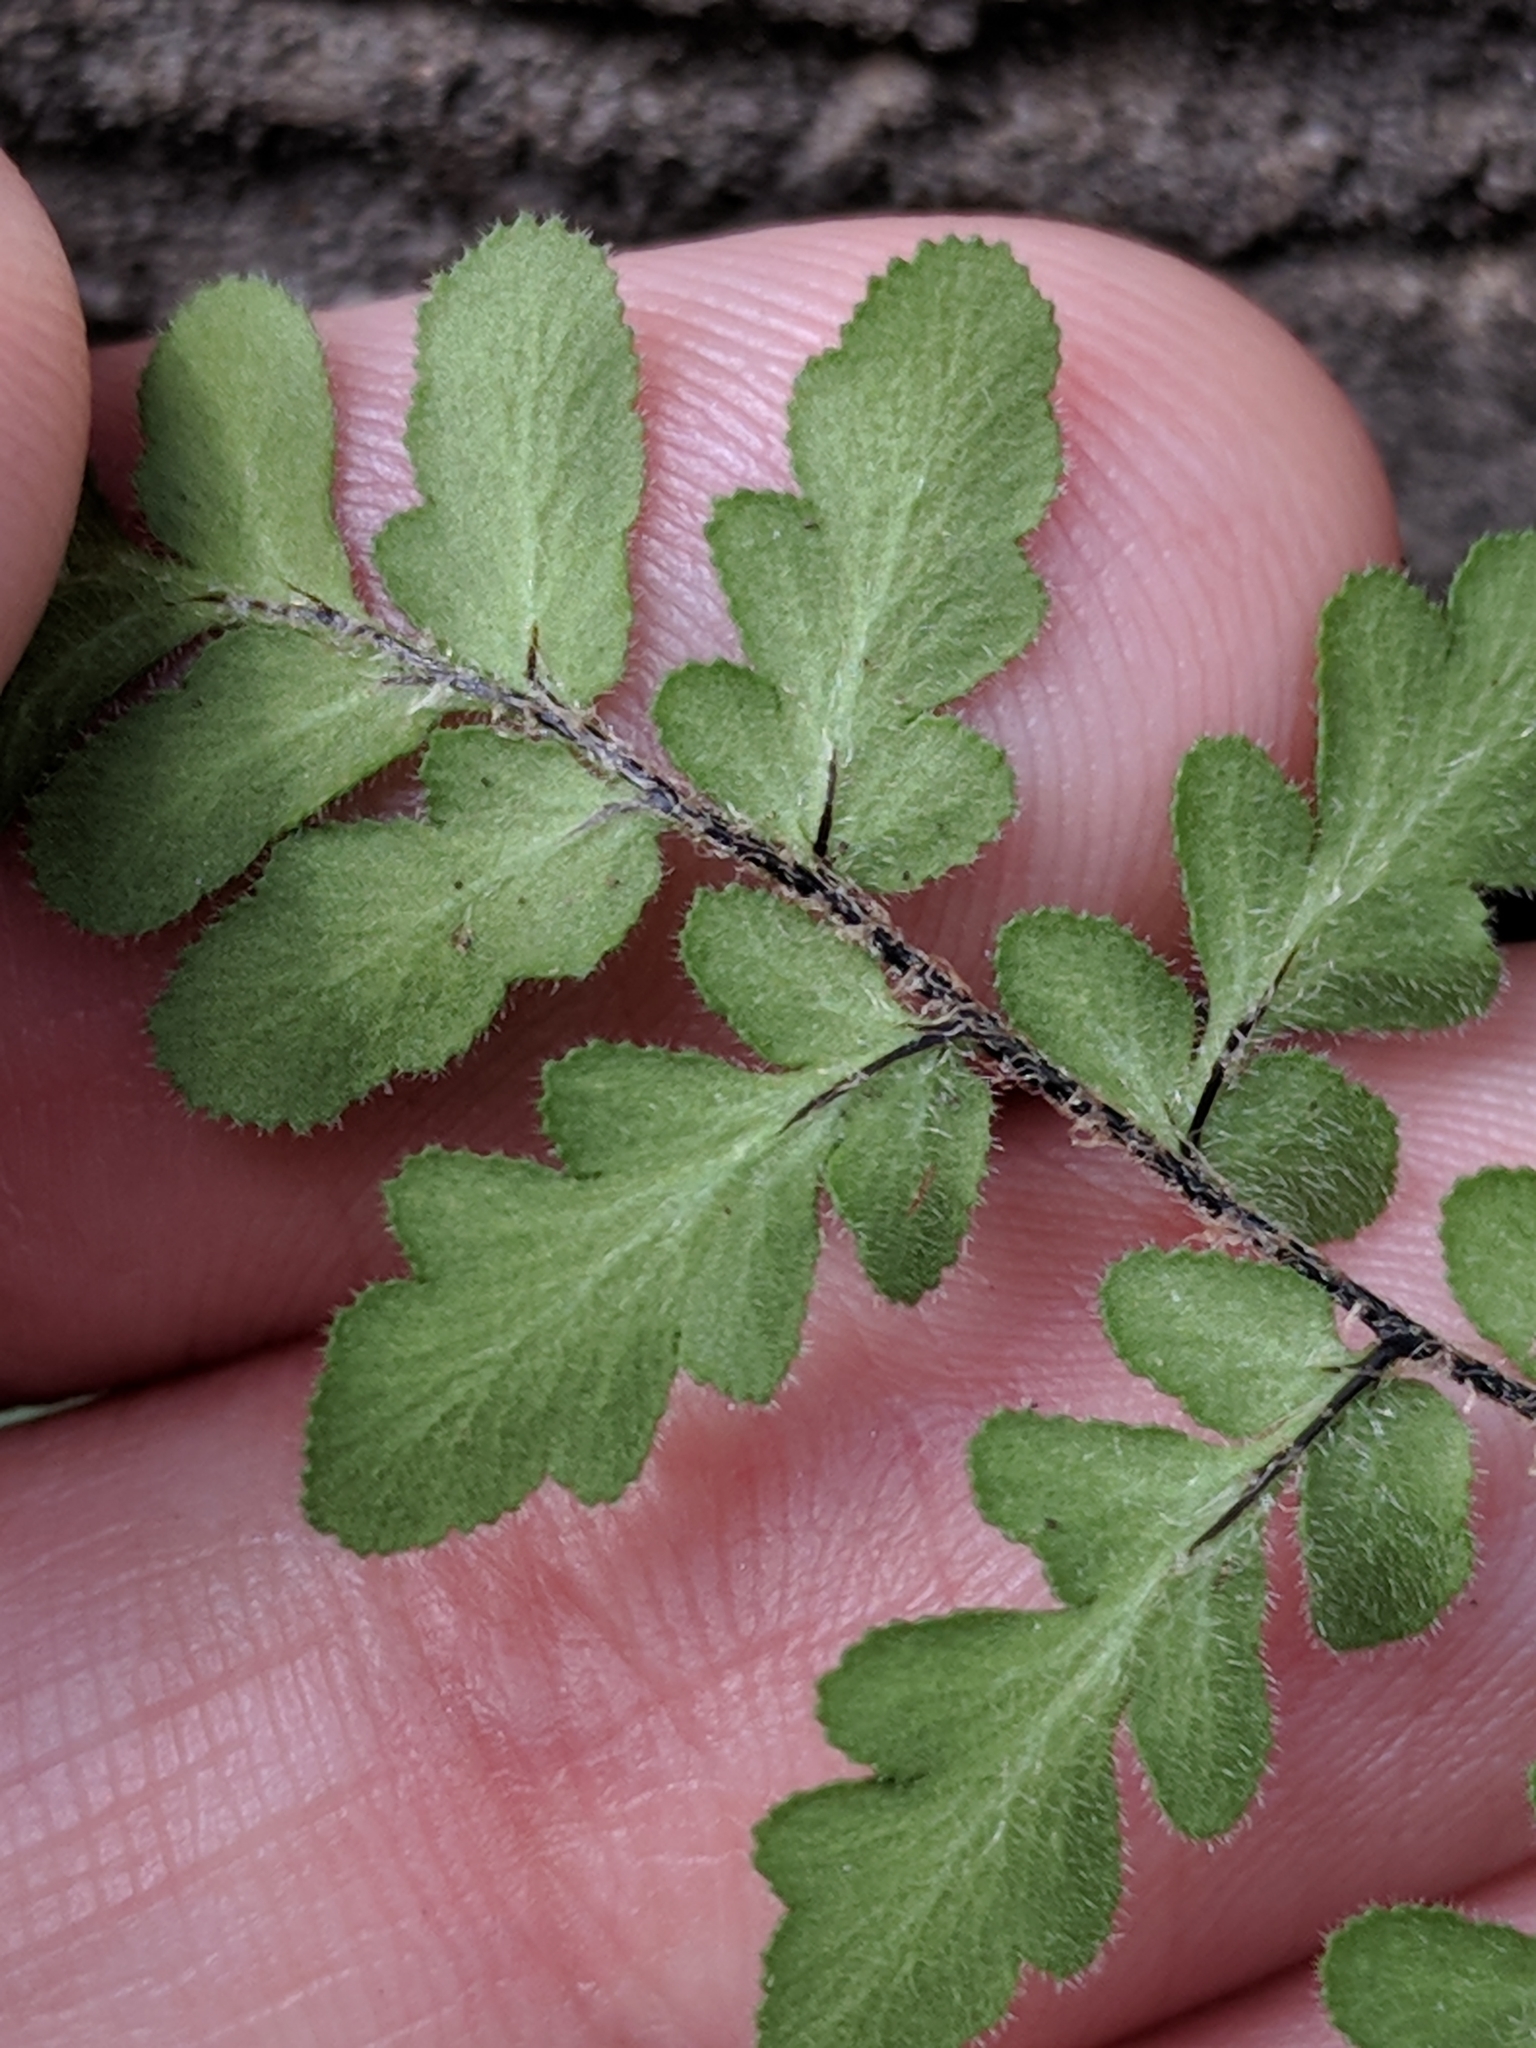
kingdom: Plantae
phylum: Tracheophyta
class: Polypodiopsida
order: Polypodiales
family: Pteridaceae
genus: Myriopteris
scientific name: Myriopteris scabra
